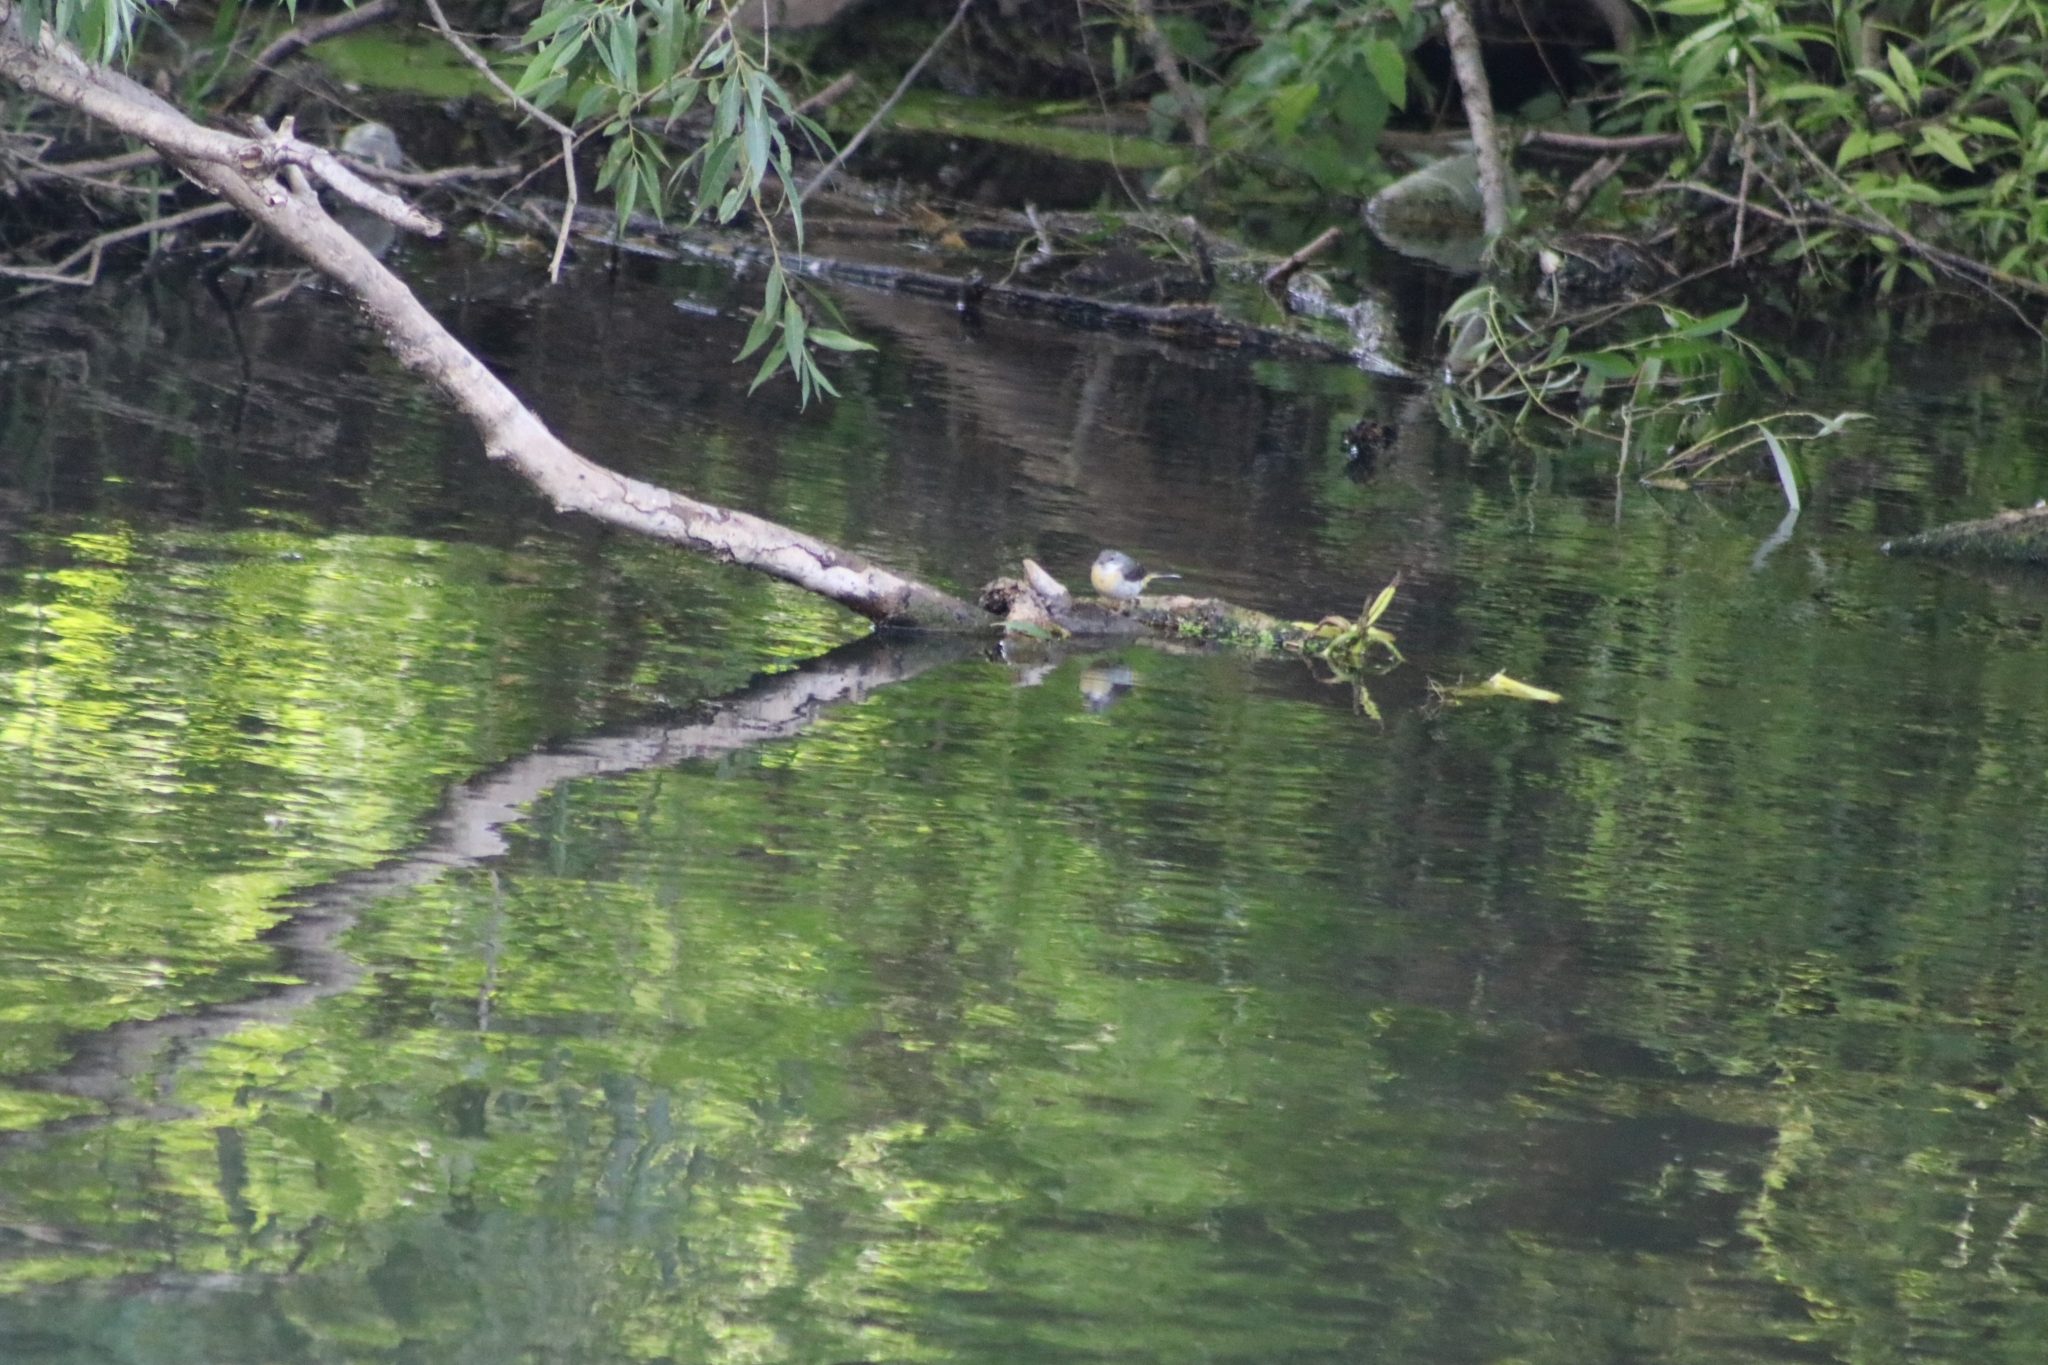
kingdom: Animalia
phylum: Chordata
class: Aves
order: Passeriformes
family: Motacillidae
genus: Motacilla
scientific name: Motacilla cinerea
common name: Grey wagtail
